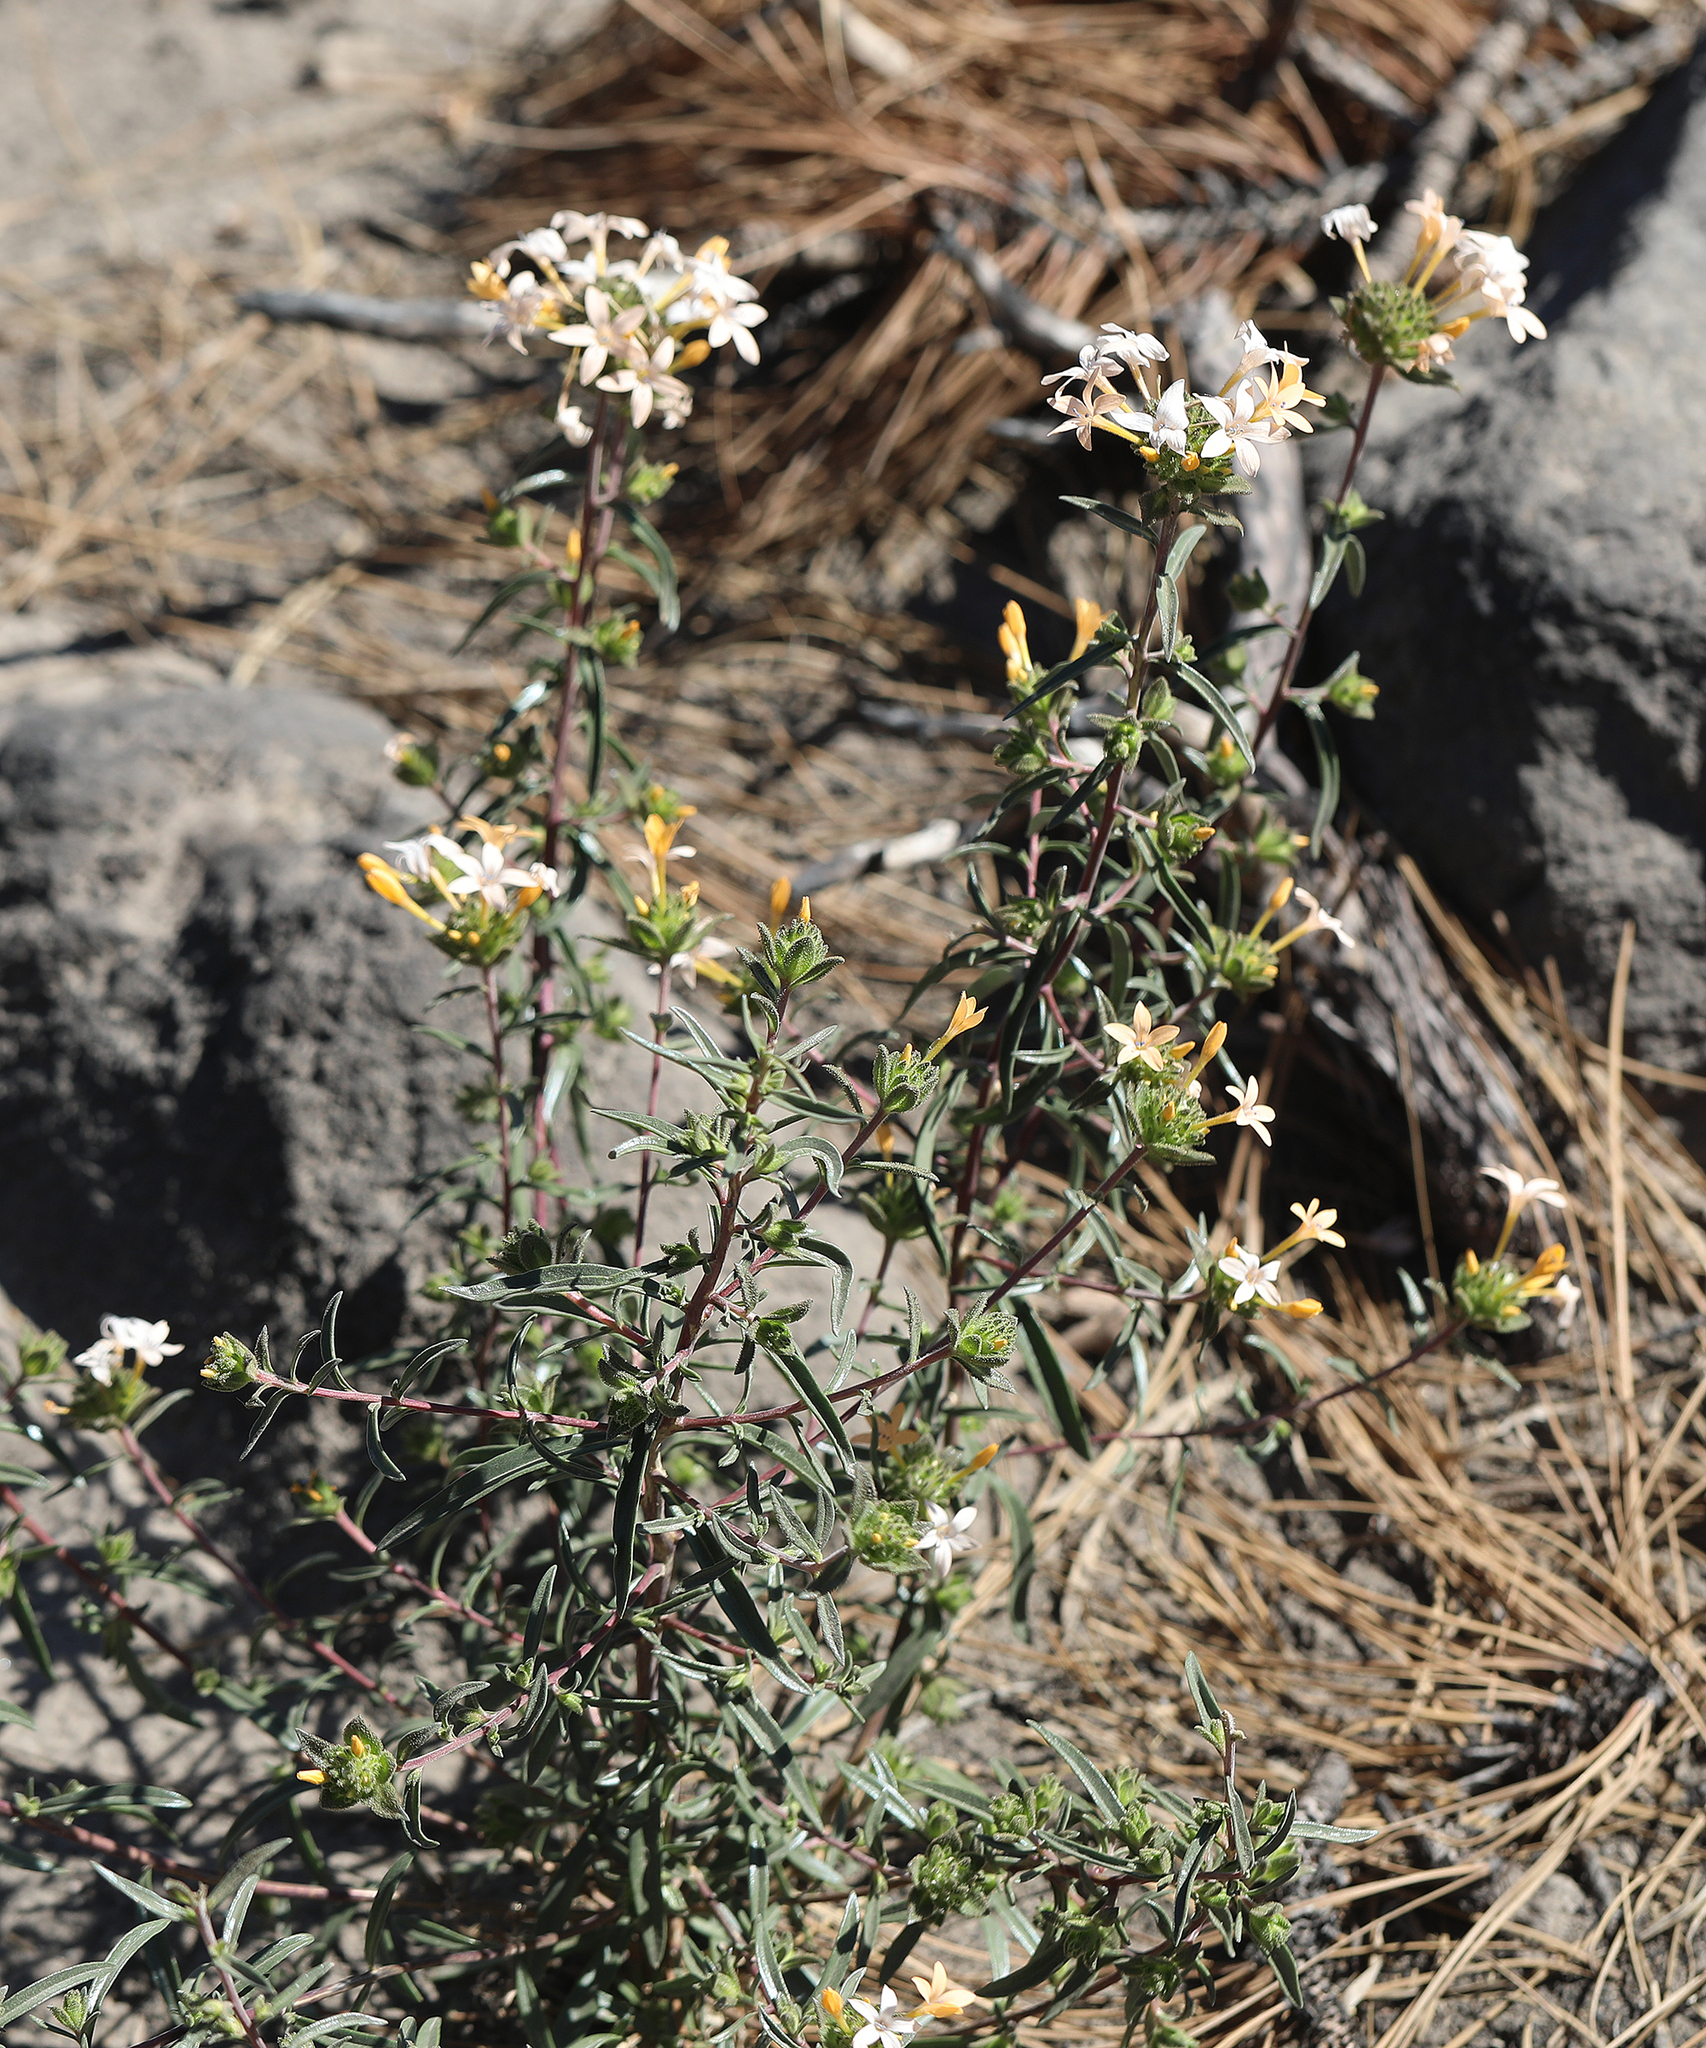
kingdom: Plantae
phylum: Tracheophyta
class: Magnoliopsida
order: Ericales
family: Polemoniaceae
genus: Collomia
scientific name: Collomia grandiflora
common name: California strawflower
